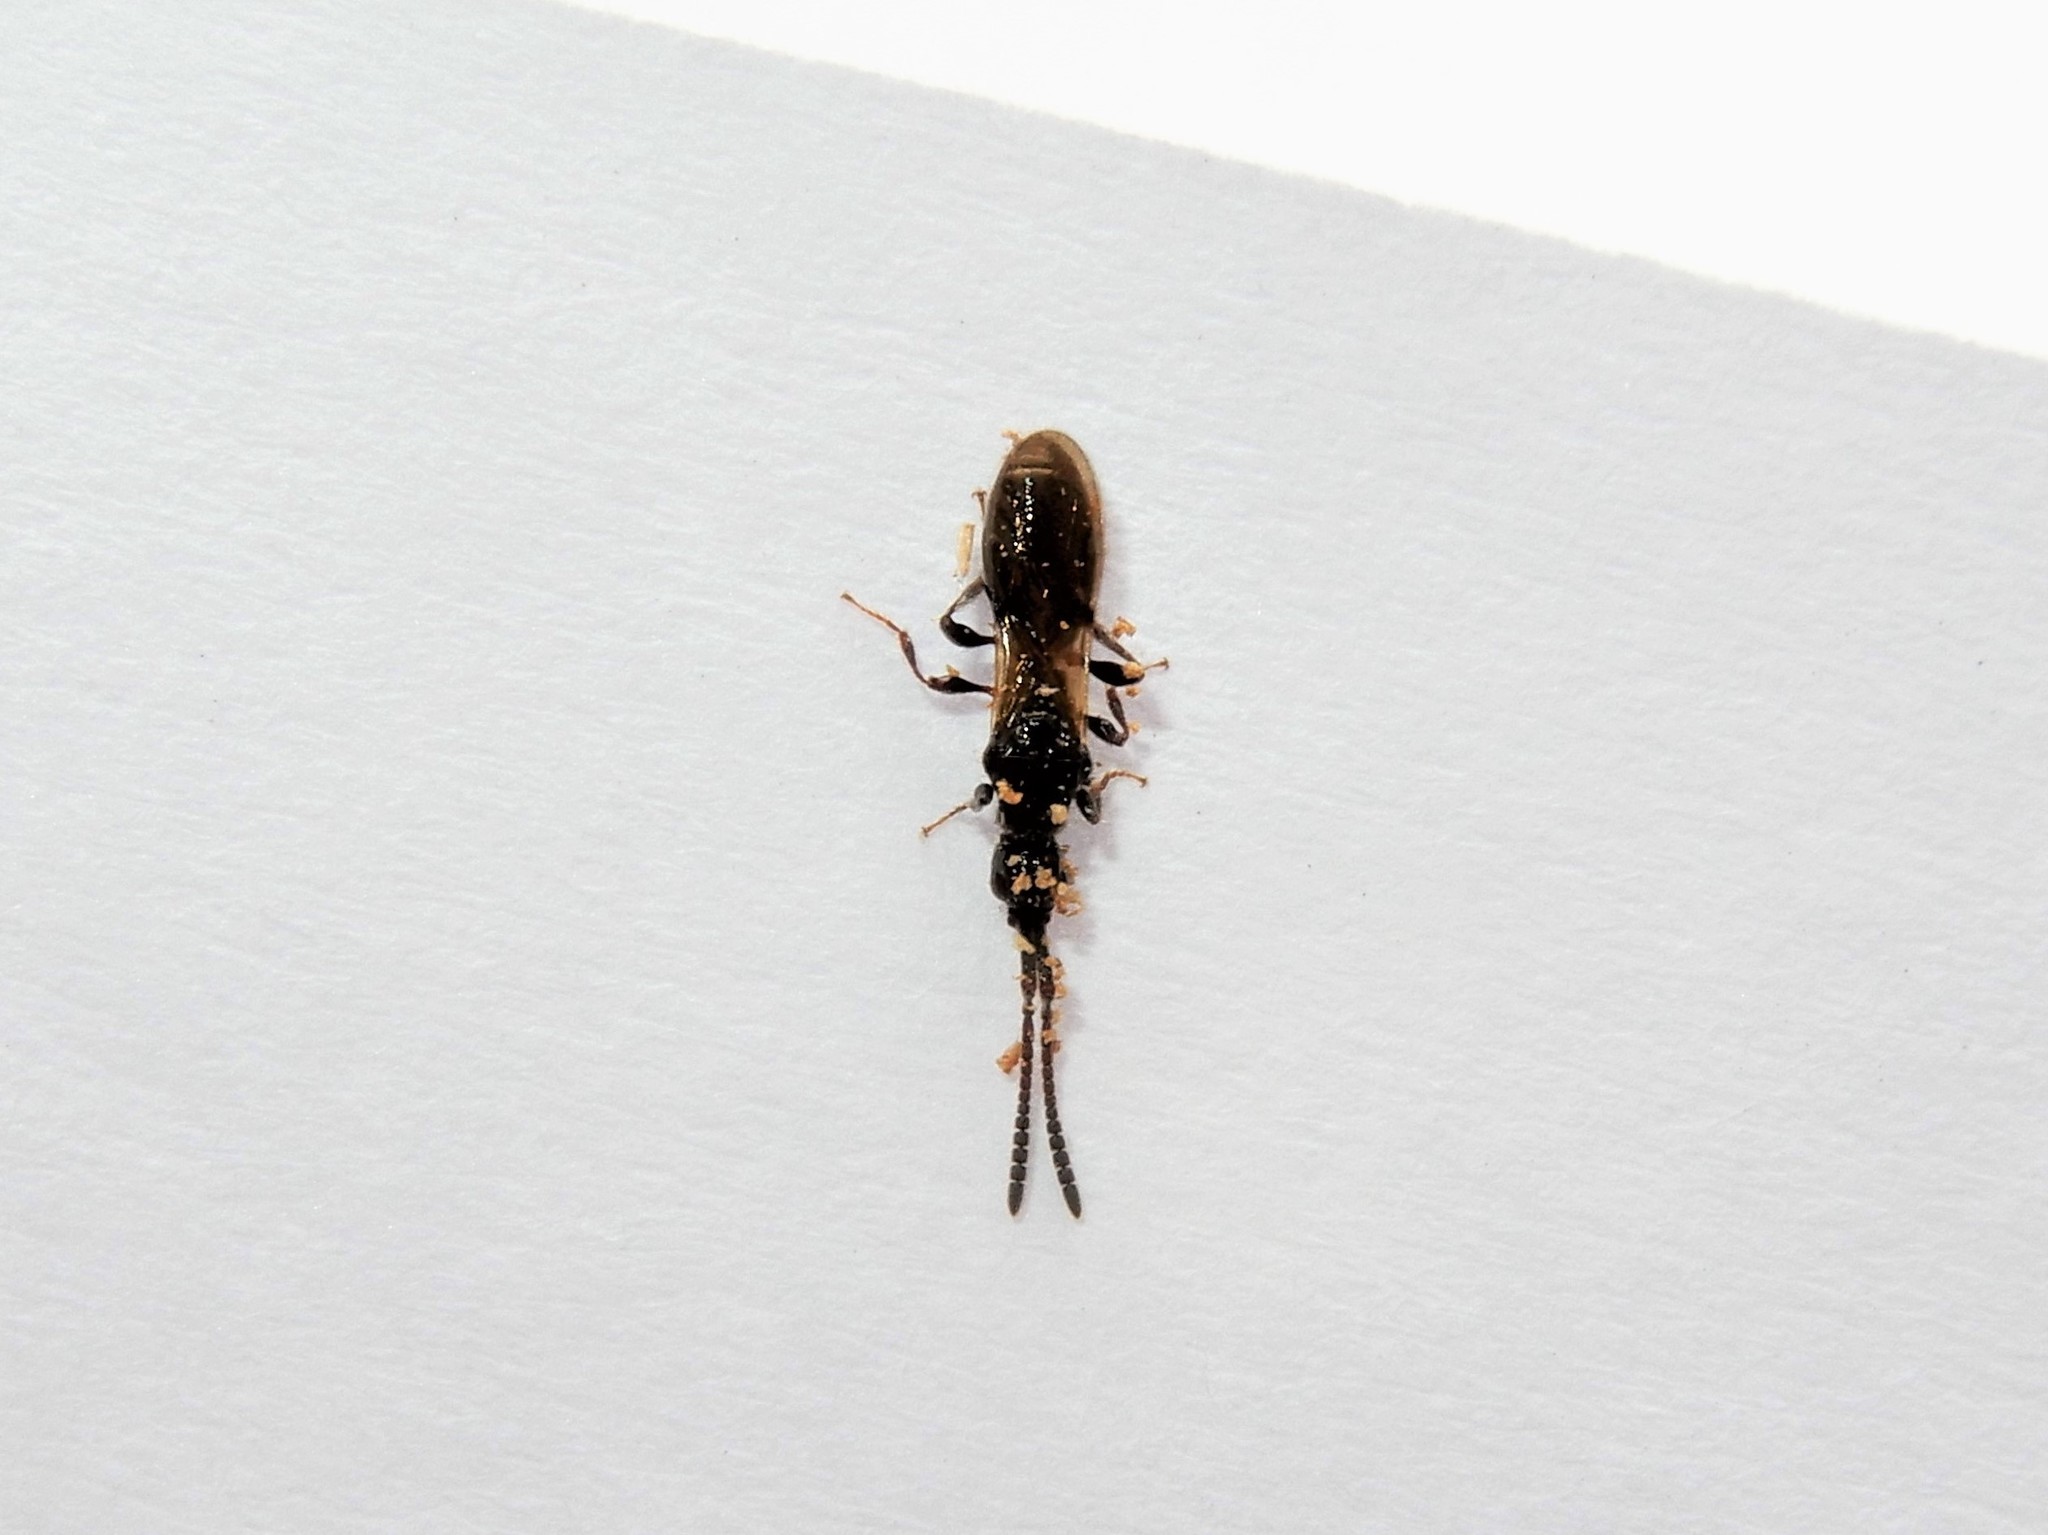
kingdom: Animalia
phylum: Arthropoda
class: Insecta
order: Hymenoptera
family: Diapriidae
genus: Neurogalesus
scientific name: Neurogalesus carinatus
